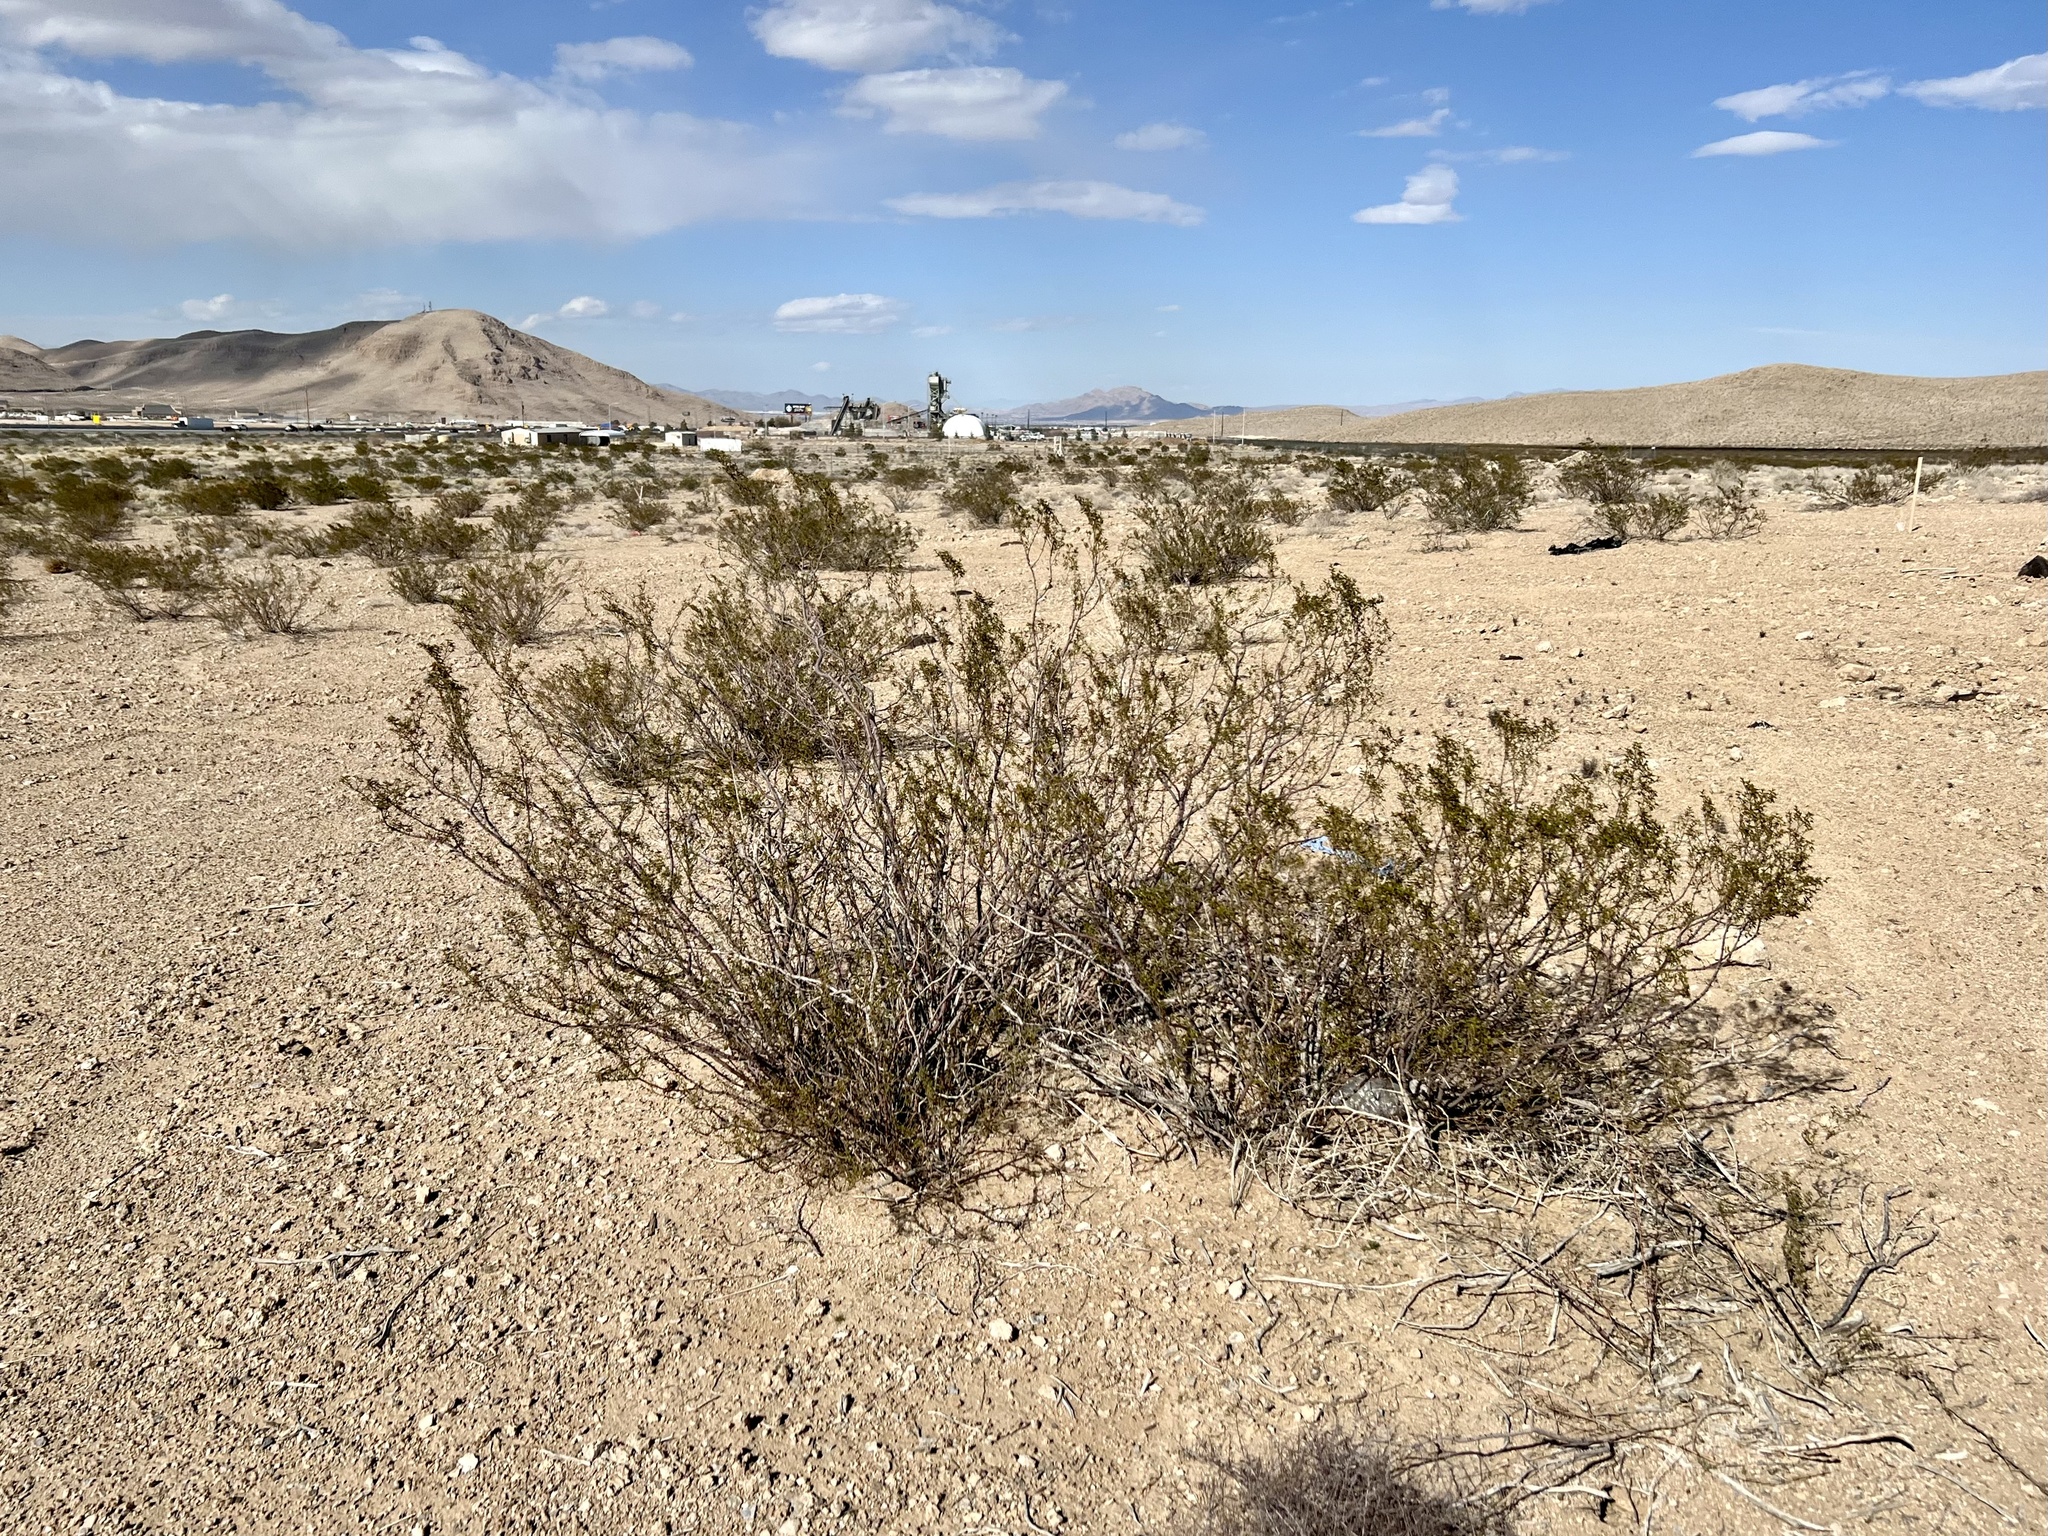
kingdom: Plantae
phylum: Tracheophyta
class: Magnoliopsida
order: Zygophyllales
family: Zygophyllaceae
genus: Larrea
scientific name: Larrea tridentata
